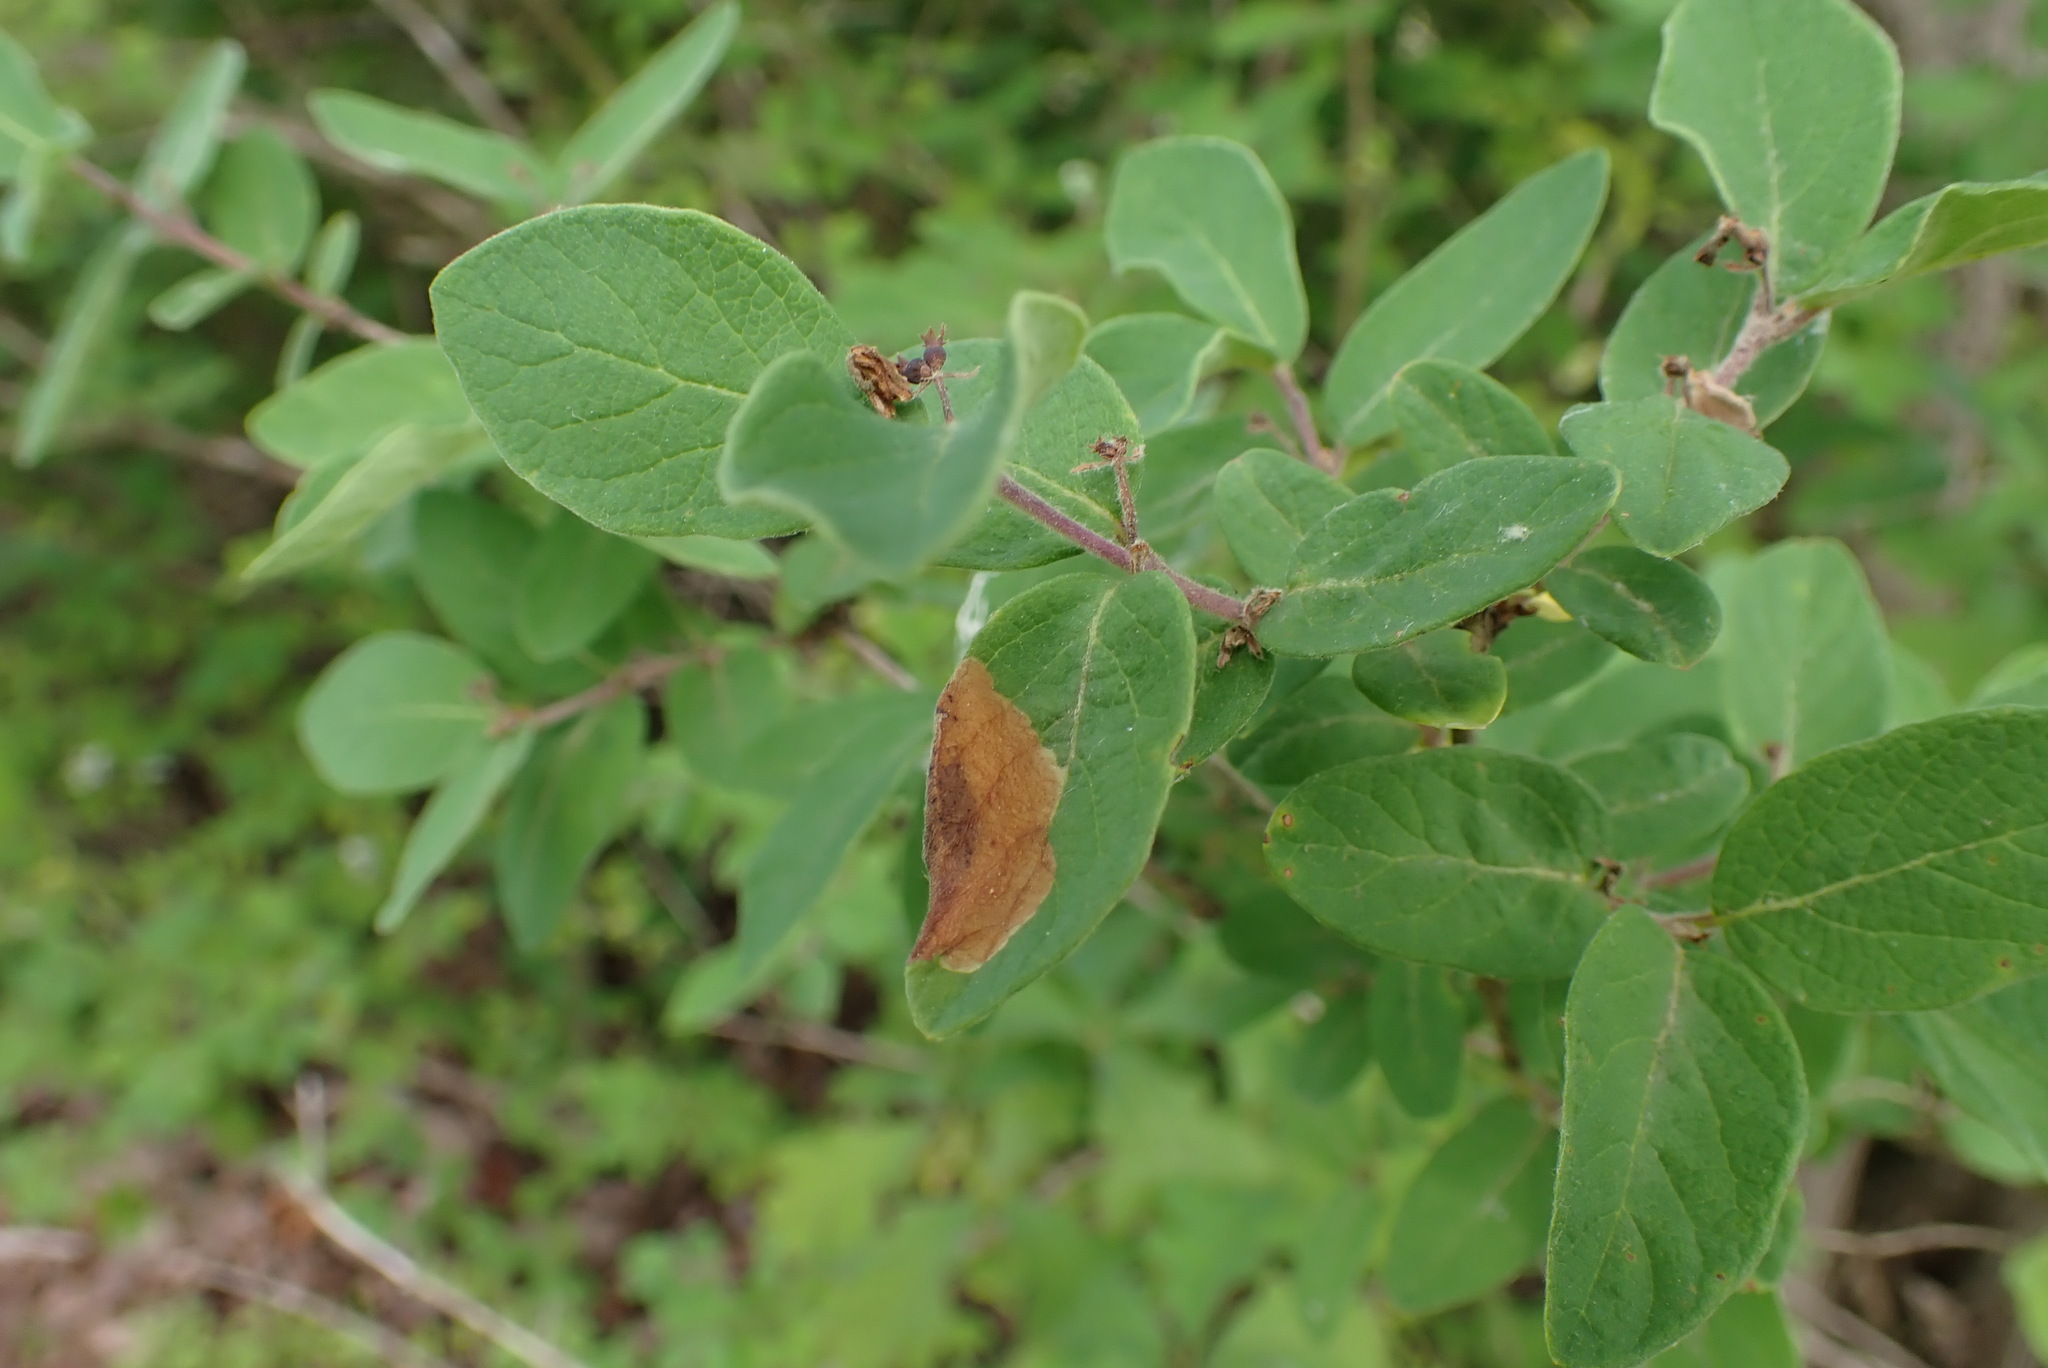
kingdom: Animalia
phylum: Arthropoda
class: Insecta
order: Lepidoptera
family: Elachistidae
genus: Perittia
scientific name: Perittia herrichiella
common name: Moth
